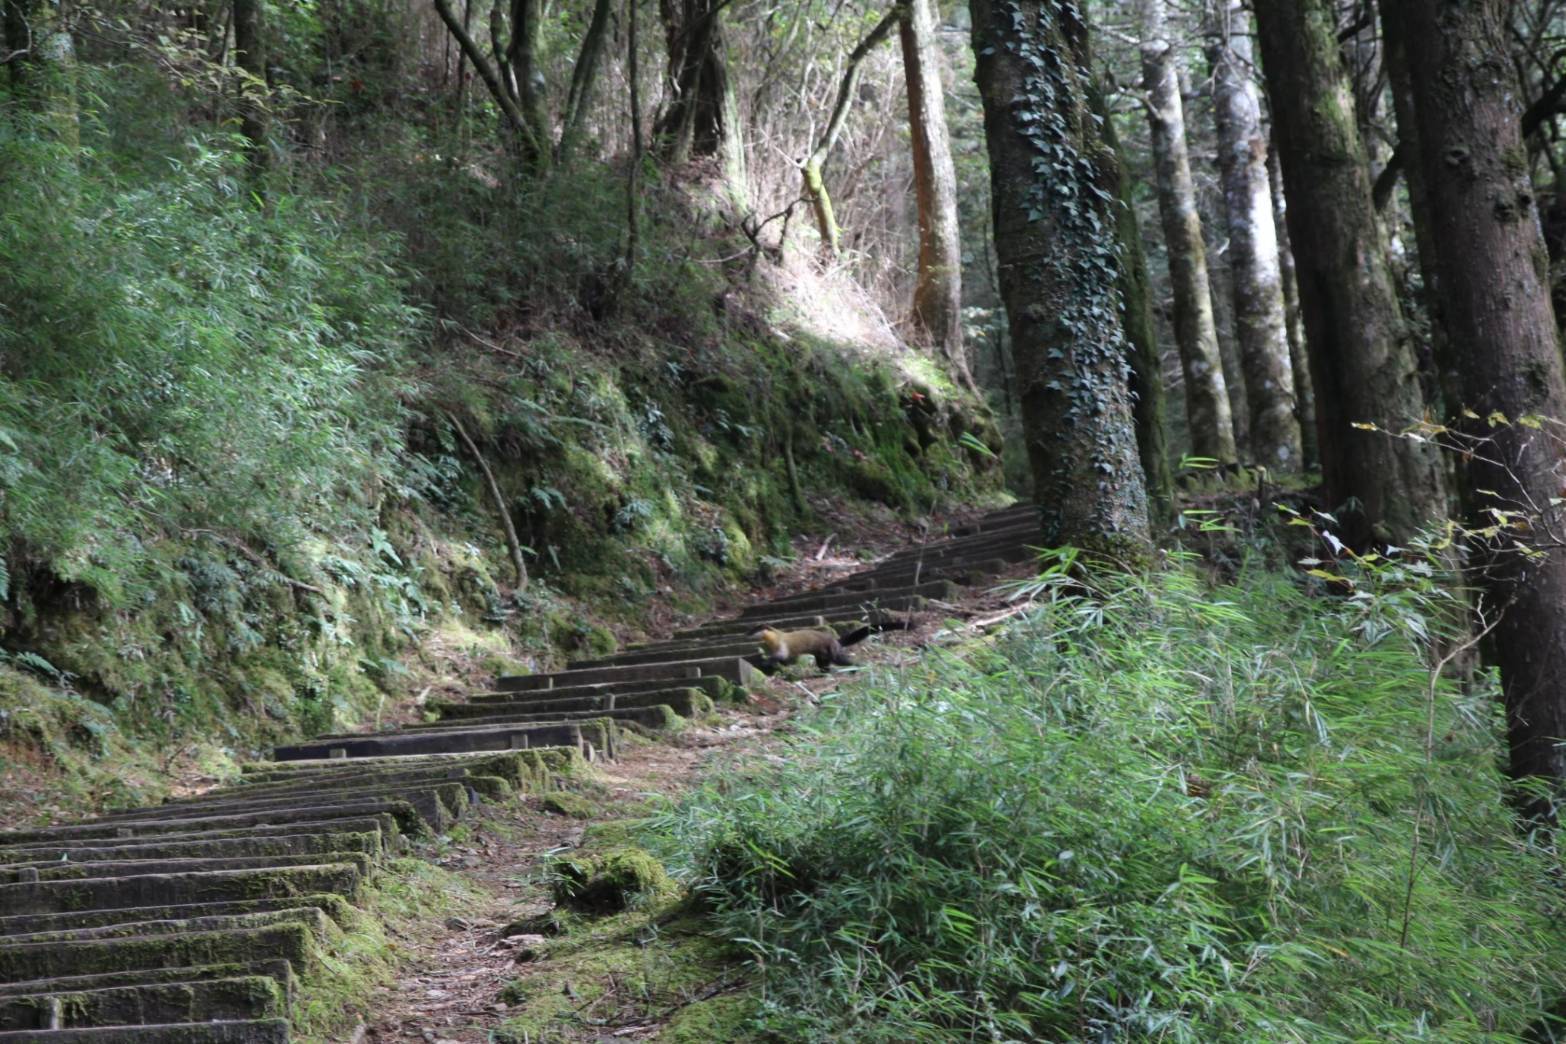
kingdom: Animalia
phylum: Chordata
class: Mammalia
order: Carnivora
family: Mustelidae
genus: Martes
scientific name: Martes flavigula
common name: Yellow-throated marten
